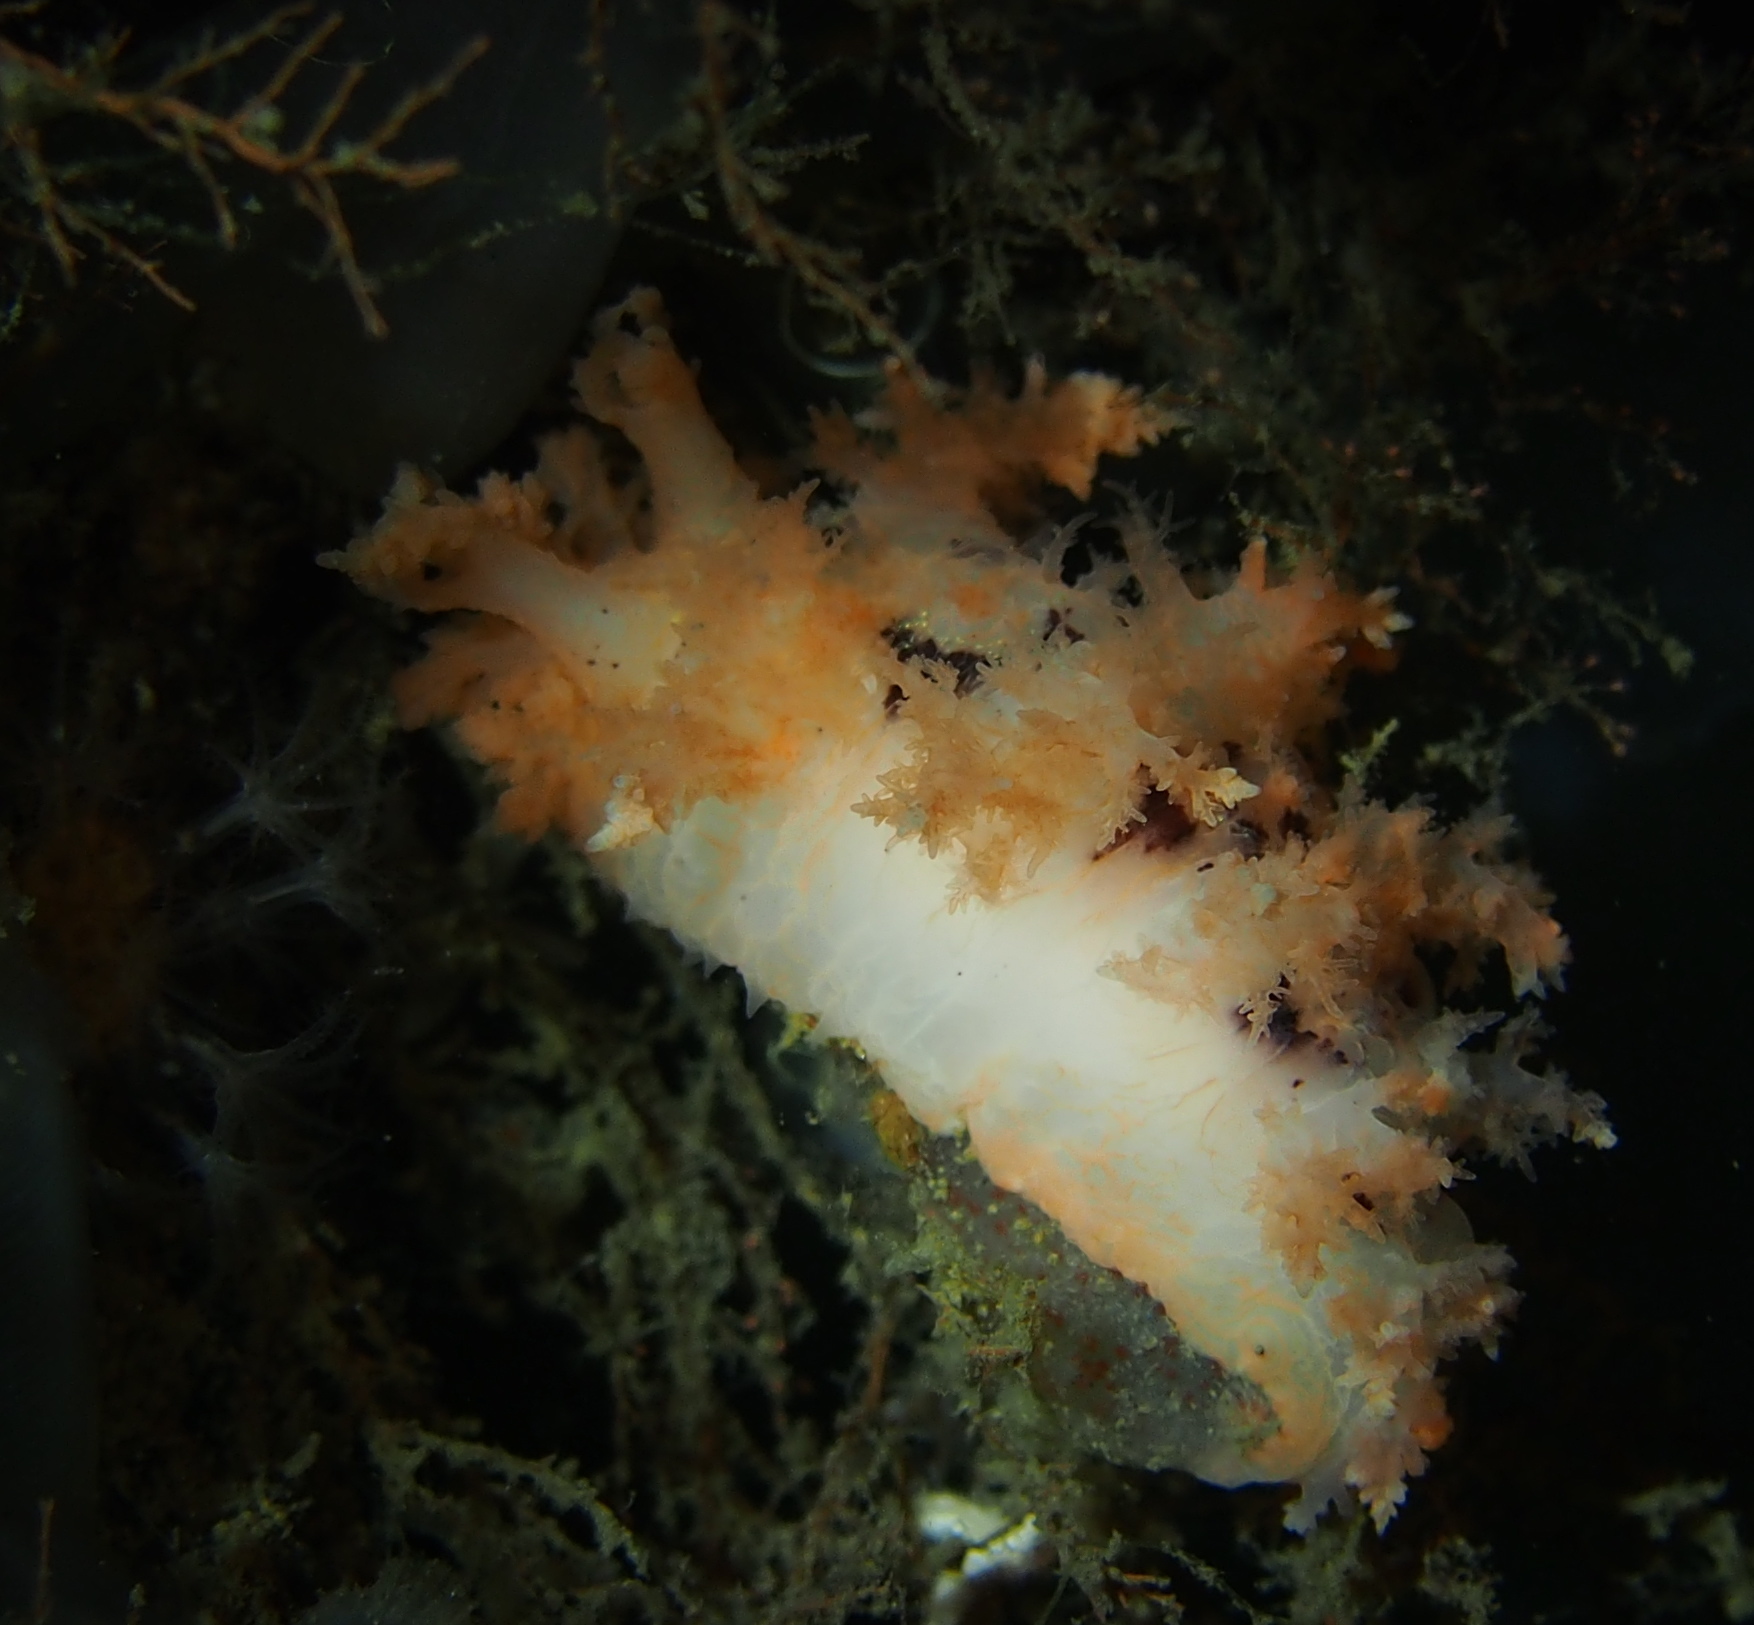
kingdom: Animalia
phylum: Mollusca
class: Gastropoda
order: Nudibranchia
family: Dendronotidae
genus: Dendronotus
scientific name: Dendronotus frondosus
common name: Bushy-backed nudibranch
